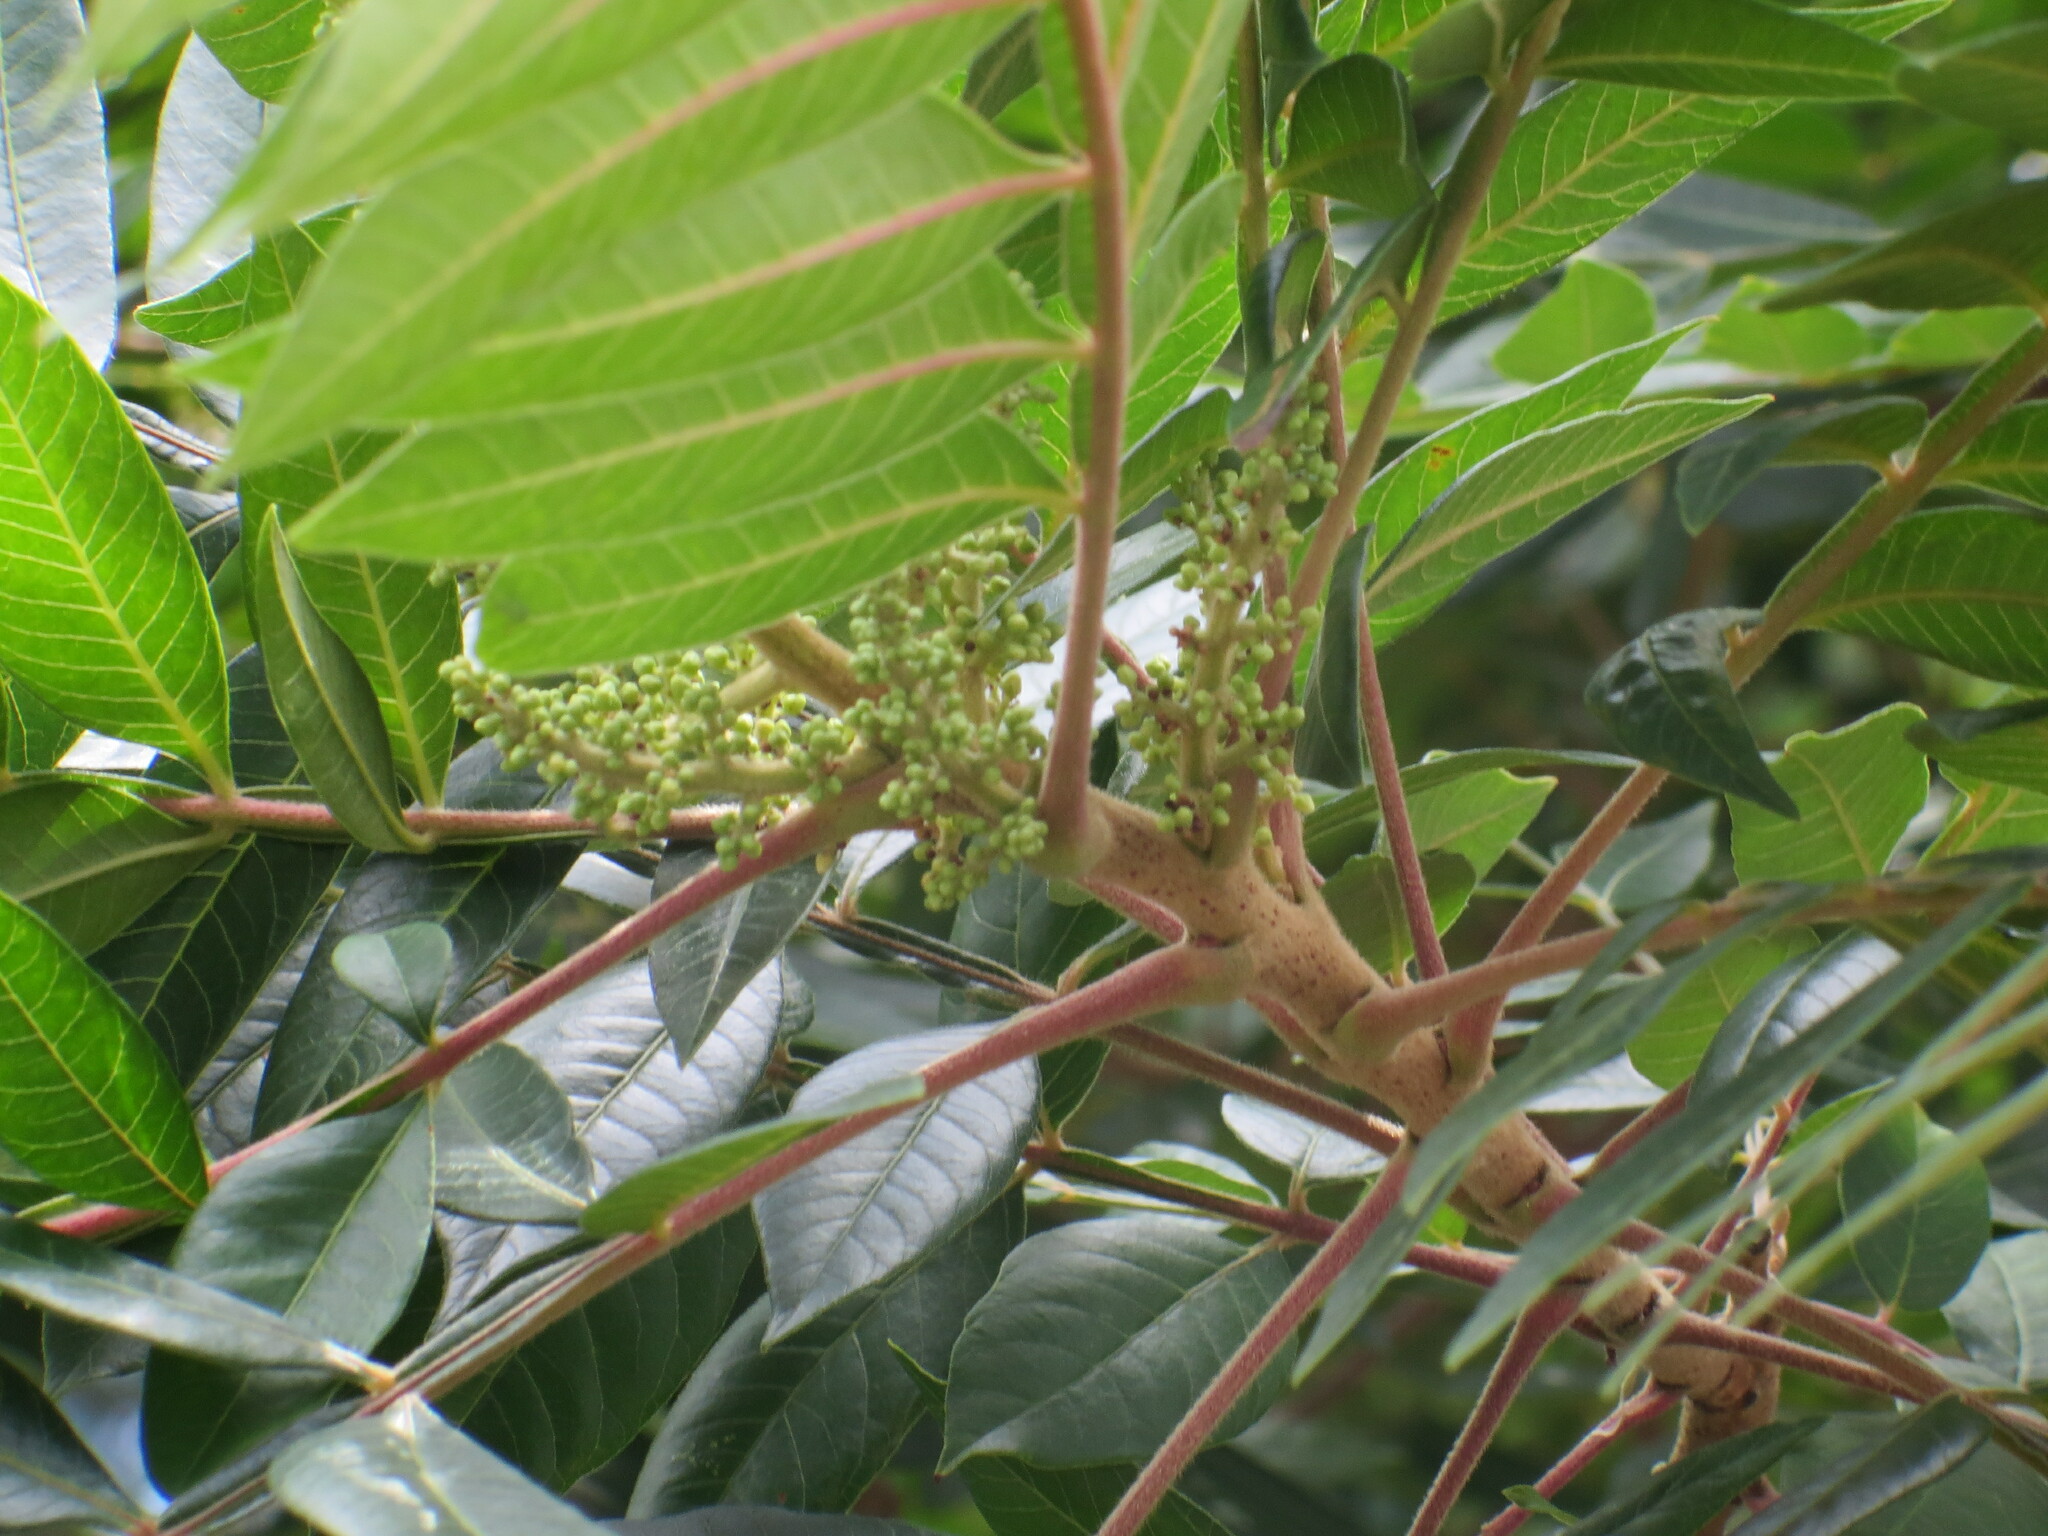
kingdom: Plantae
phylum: Tracheophyta
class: Magnoliopsida
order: Sapindales
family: Anacardiaceae
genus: Rhus
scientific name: Rhus copallina
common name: Shining sumac
